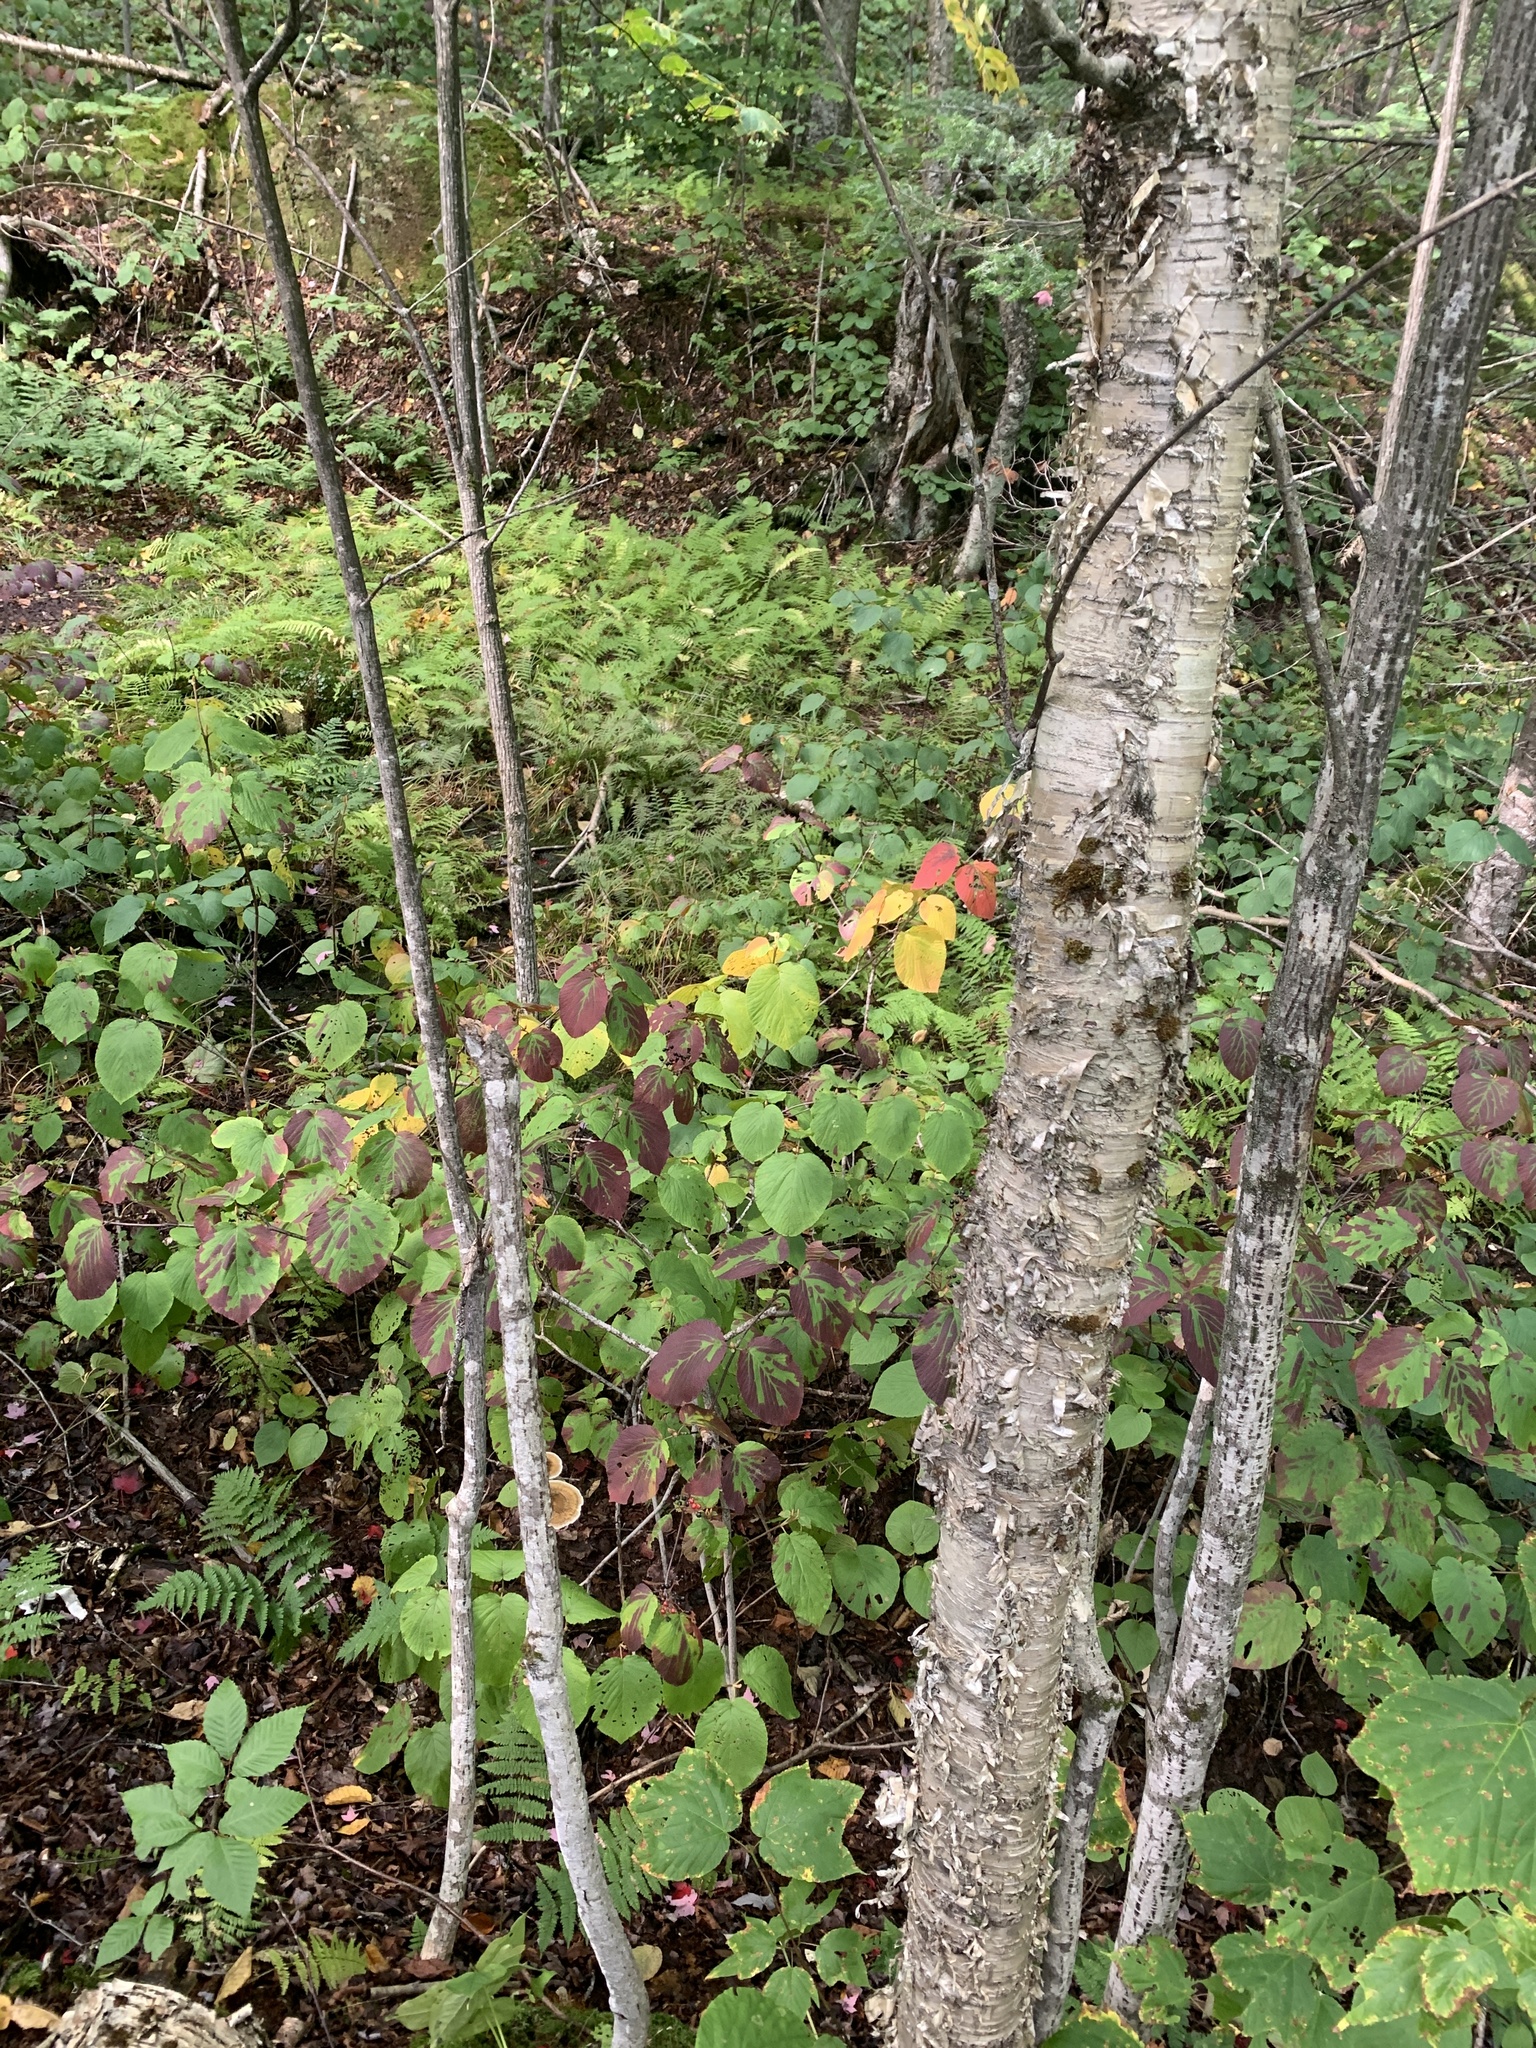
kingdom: Plantae
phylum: Tracheophyta
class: Magnoliopsida
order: Fagales
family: Betulaceae
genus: Betula
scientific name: Betula alleghaniensis
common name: Yellow birch
